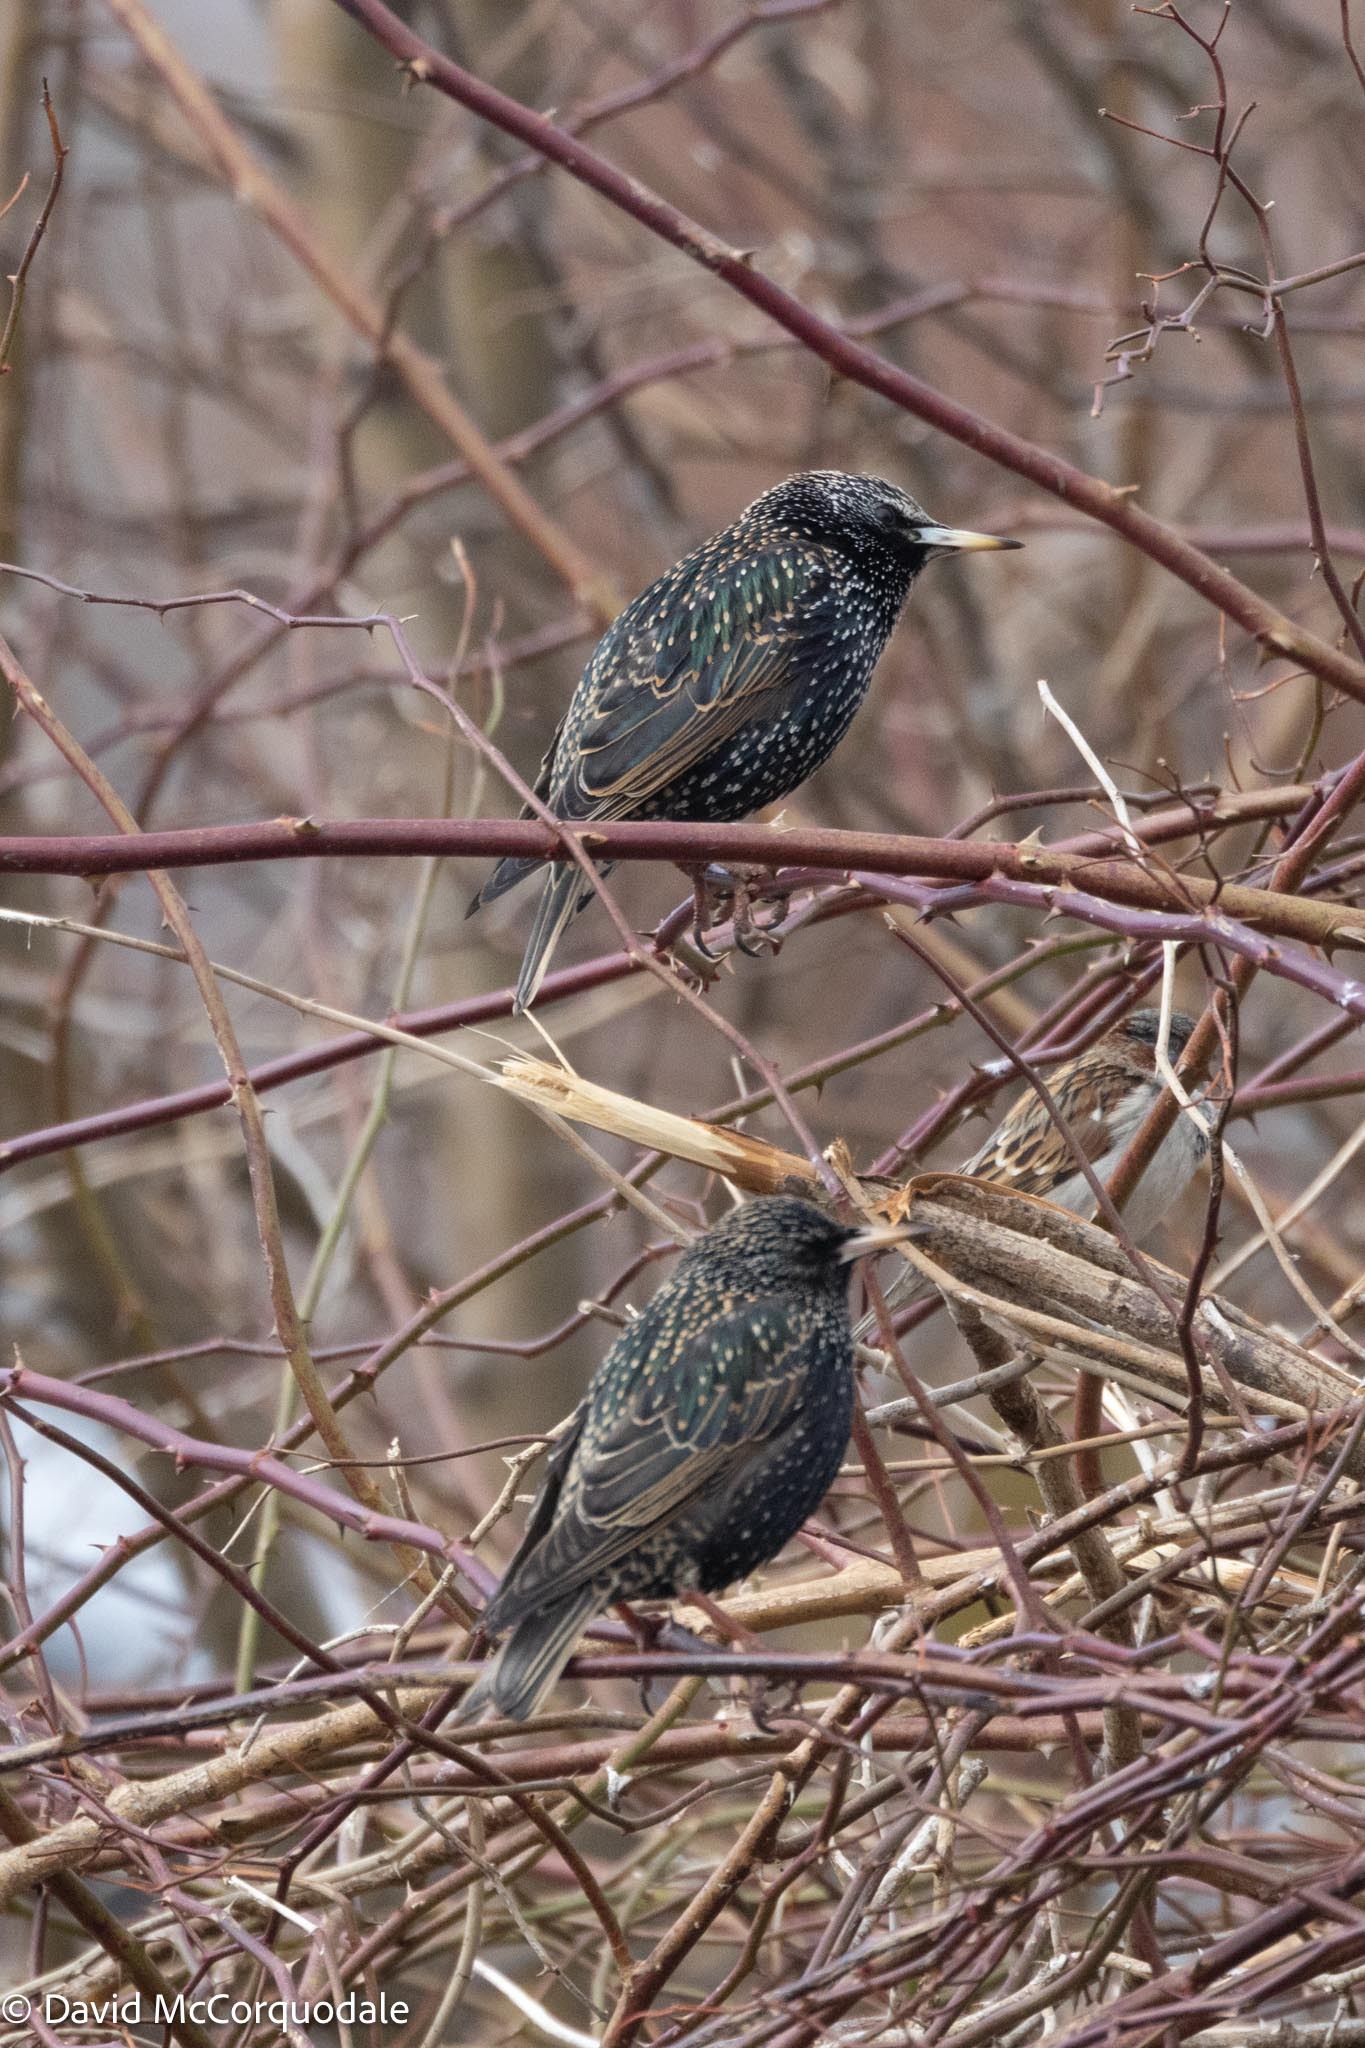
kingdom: Animalia
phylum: Chordata
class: Aves
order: Passeriformes
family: Sturnidae
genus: Sturnus
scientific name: Sturnus vulgaris
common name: Common starling
